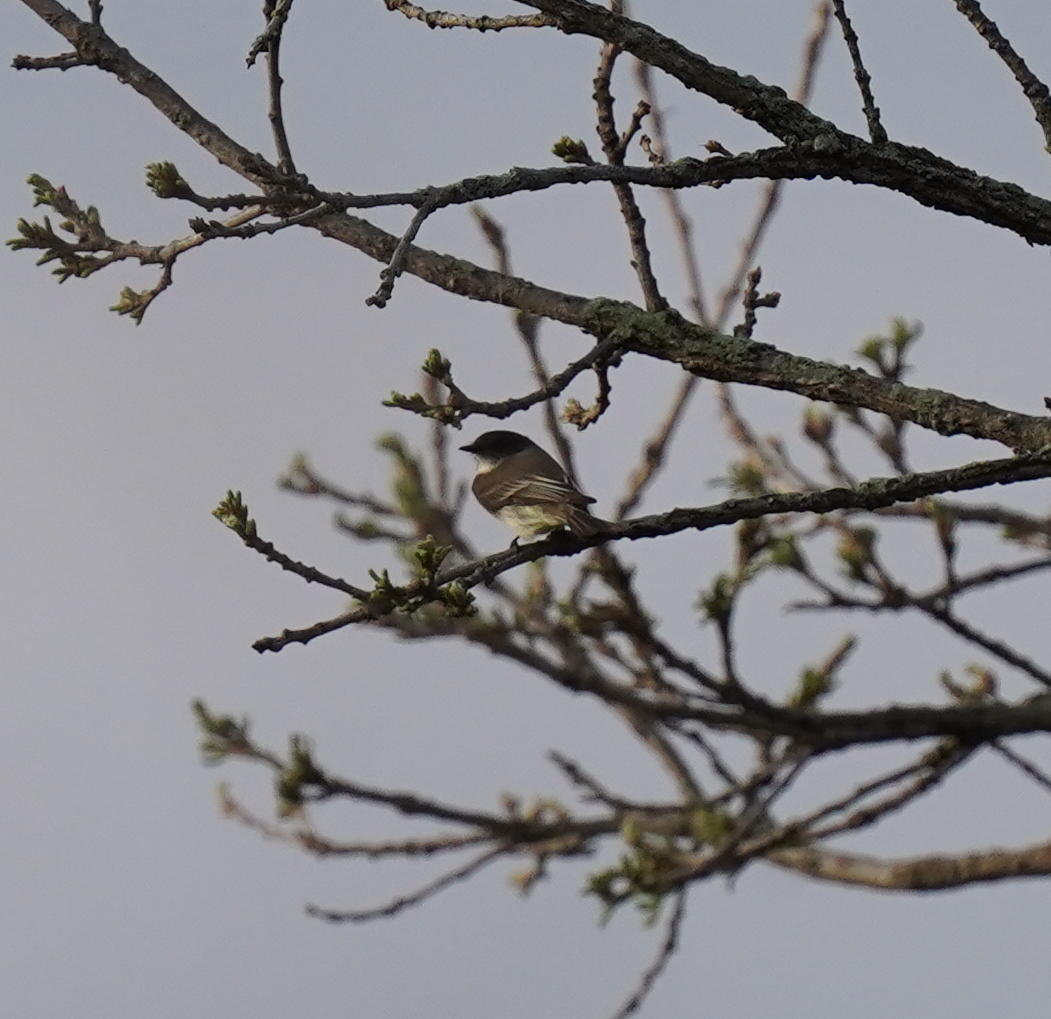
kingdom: Animalia
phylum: Chordata
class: Aves
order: Passeriformes
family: Tyrannidae
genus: Sayornis
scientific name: Sayornis phoebe
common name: Eastern phoebe
